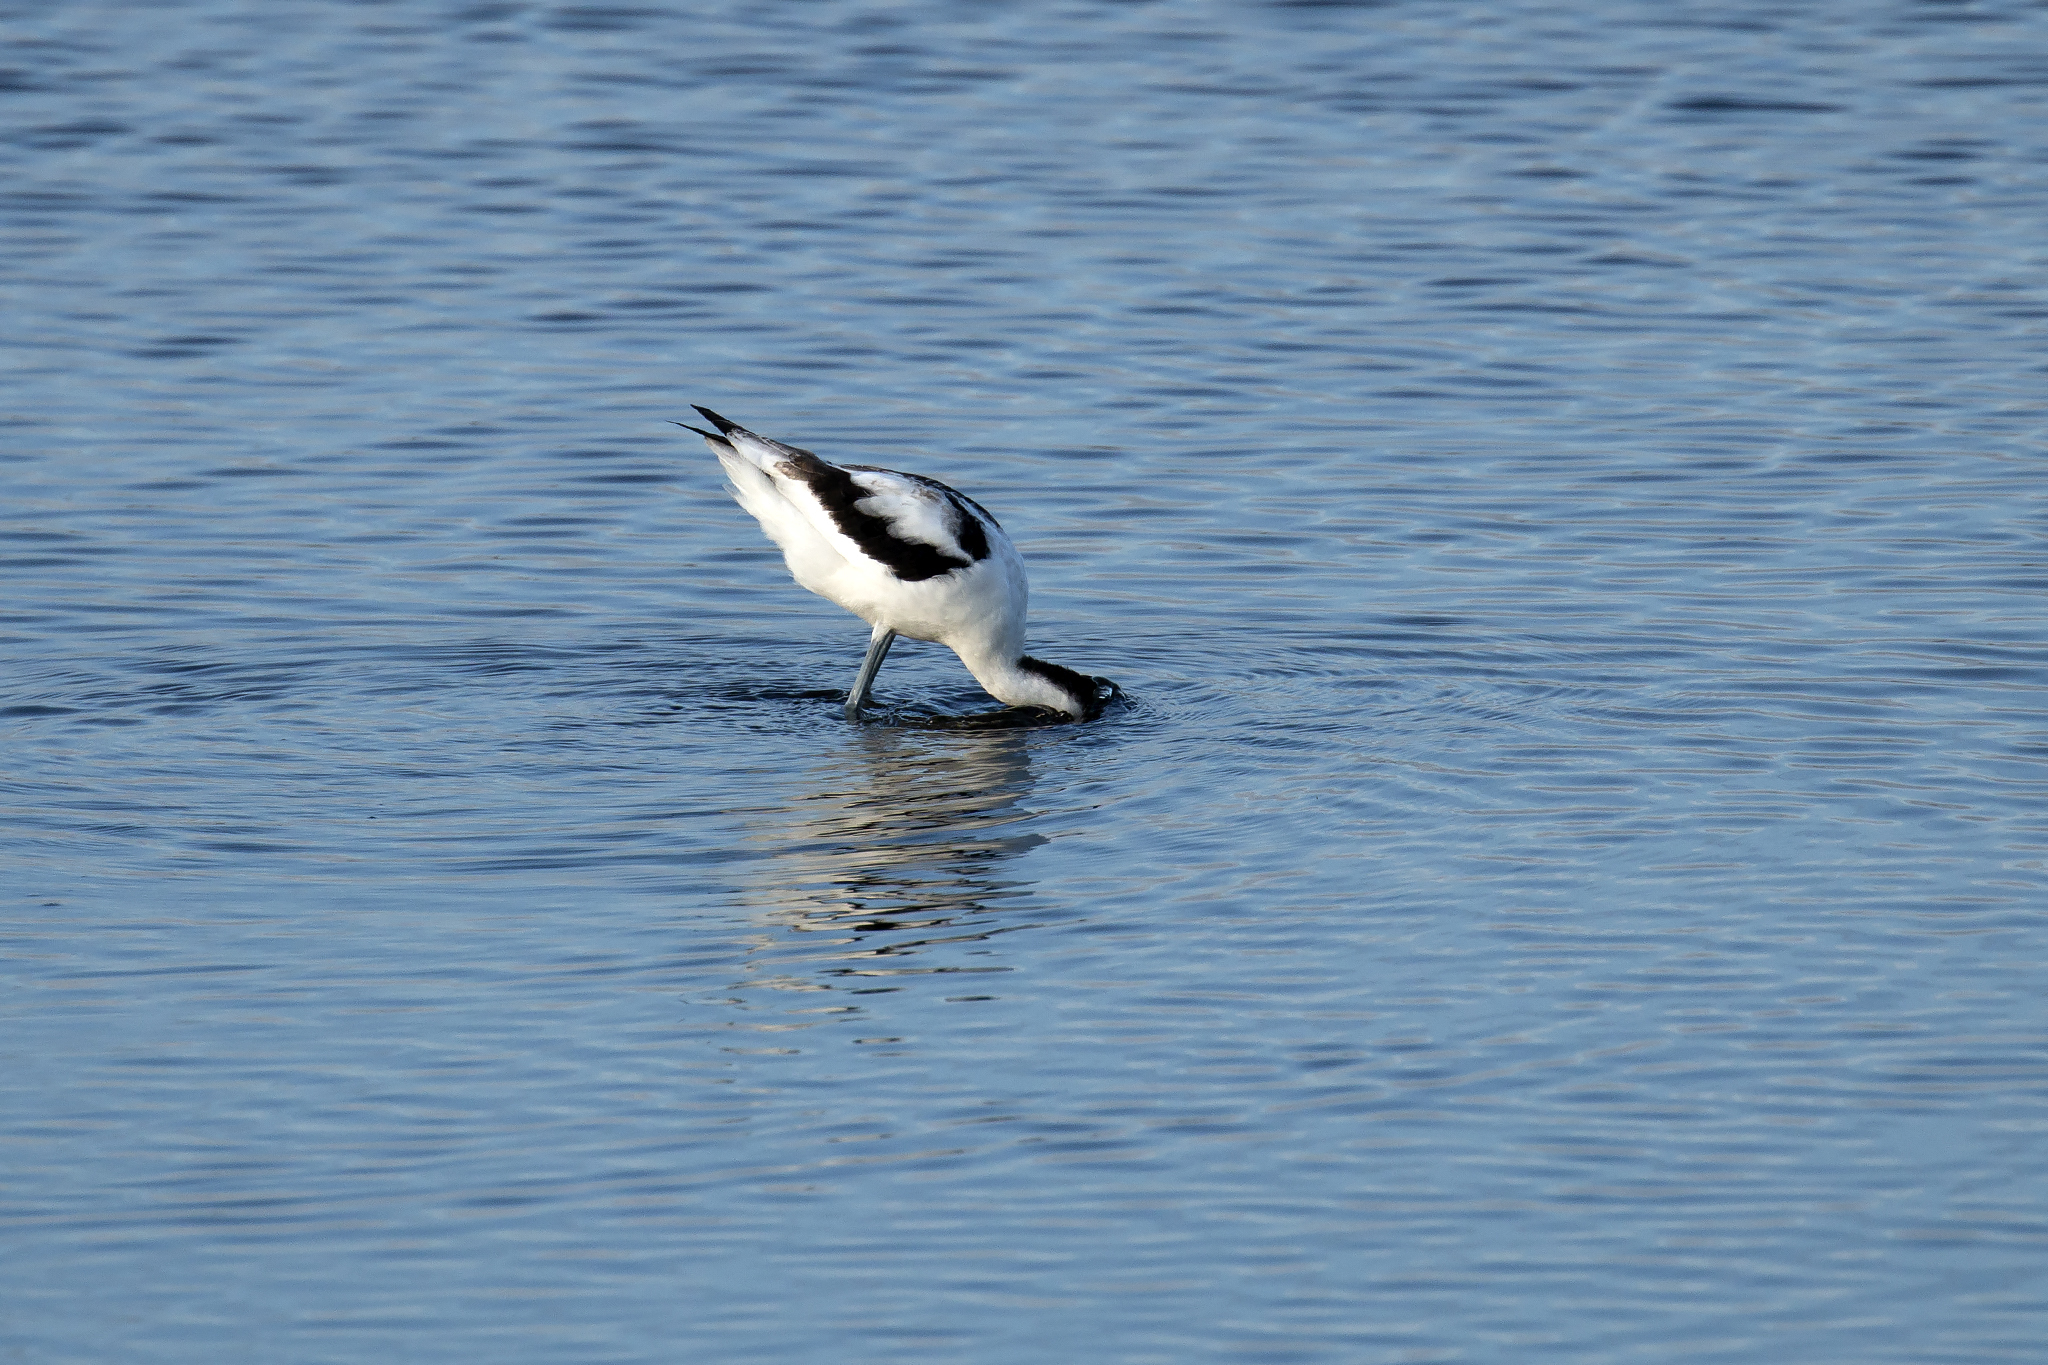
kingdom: Animalia
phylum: Chordata
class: Aves
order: Charadriiformes
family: Recurvirostridae
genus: Recurvirostra
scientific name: Recurvirostra avosetta
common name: Pied avocet
